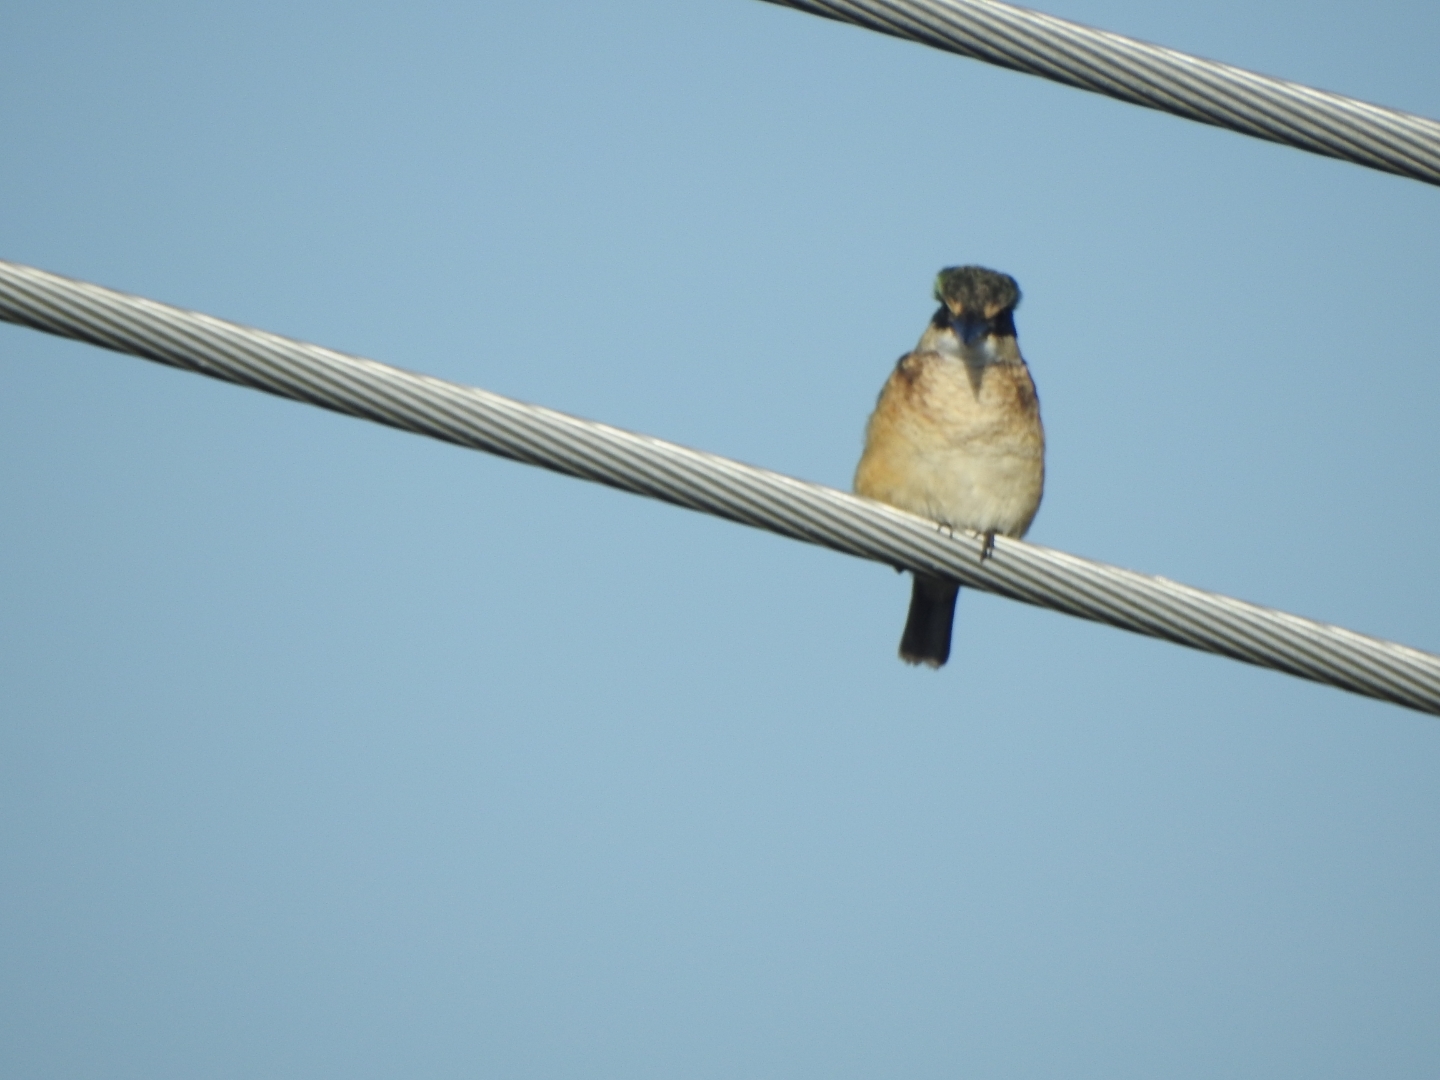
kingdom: Animalia
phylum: Chordata
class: Aves
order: Coraciiformes
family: Alcedinidae
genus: Todiramphus
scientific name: Todiramphus sanctus
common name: Sacred kingfisher
